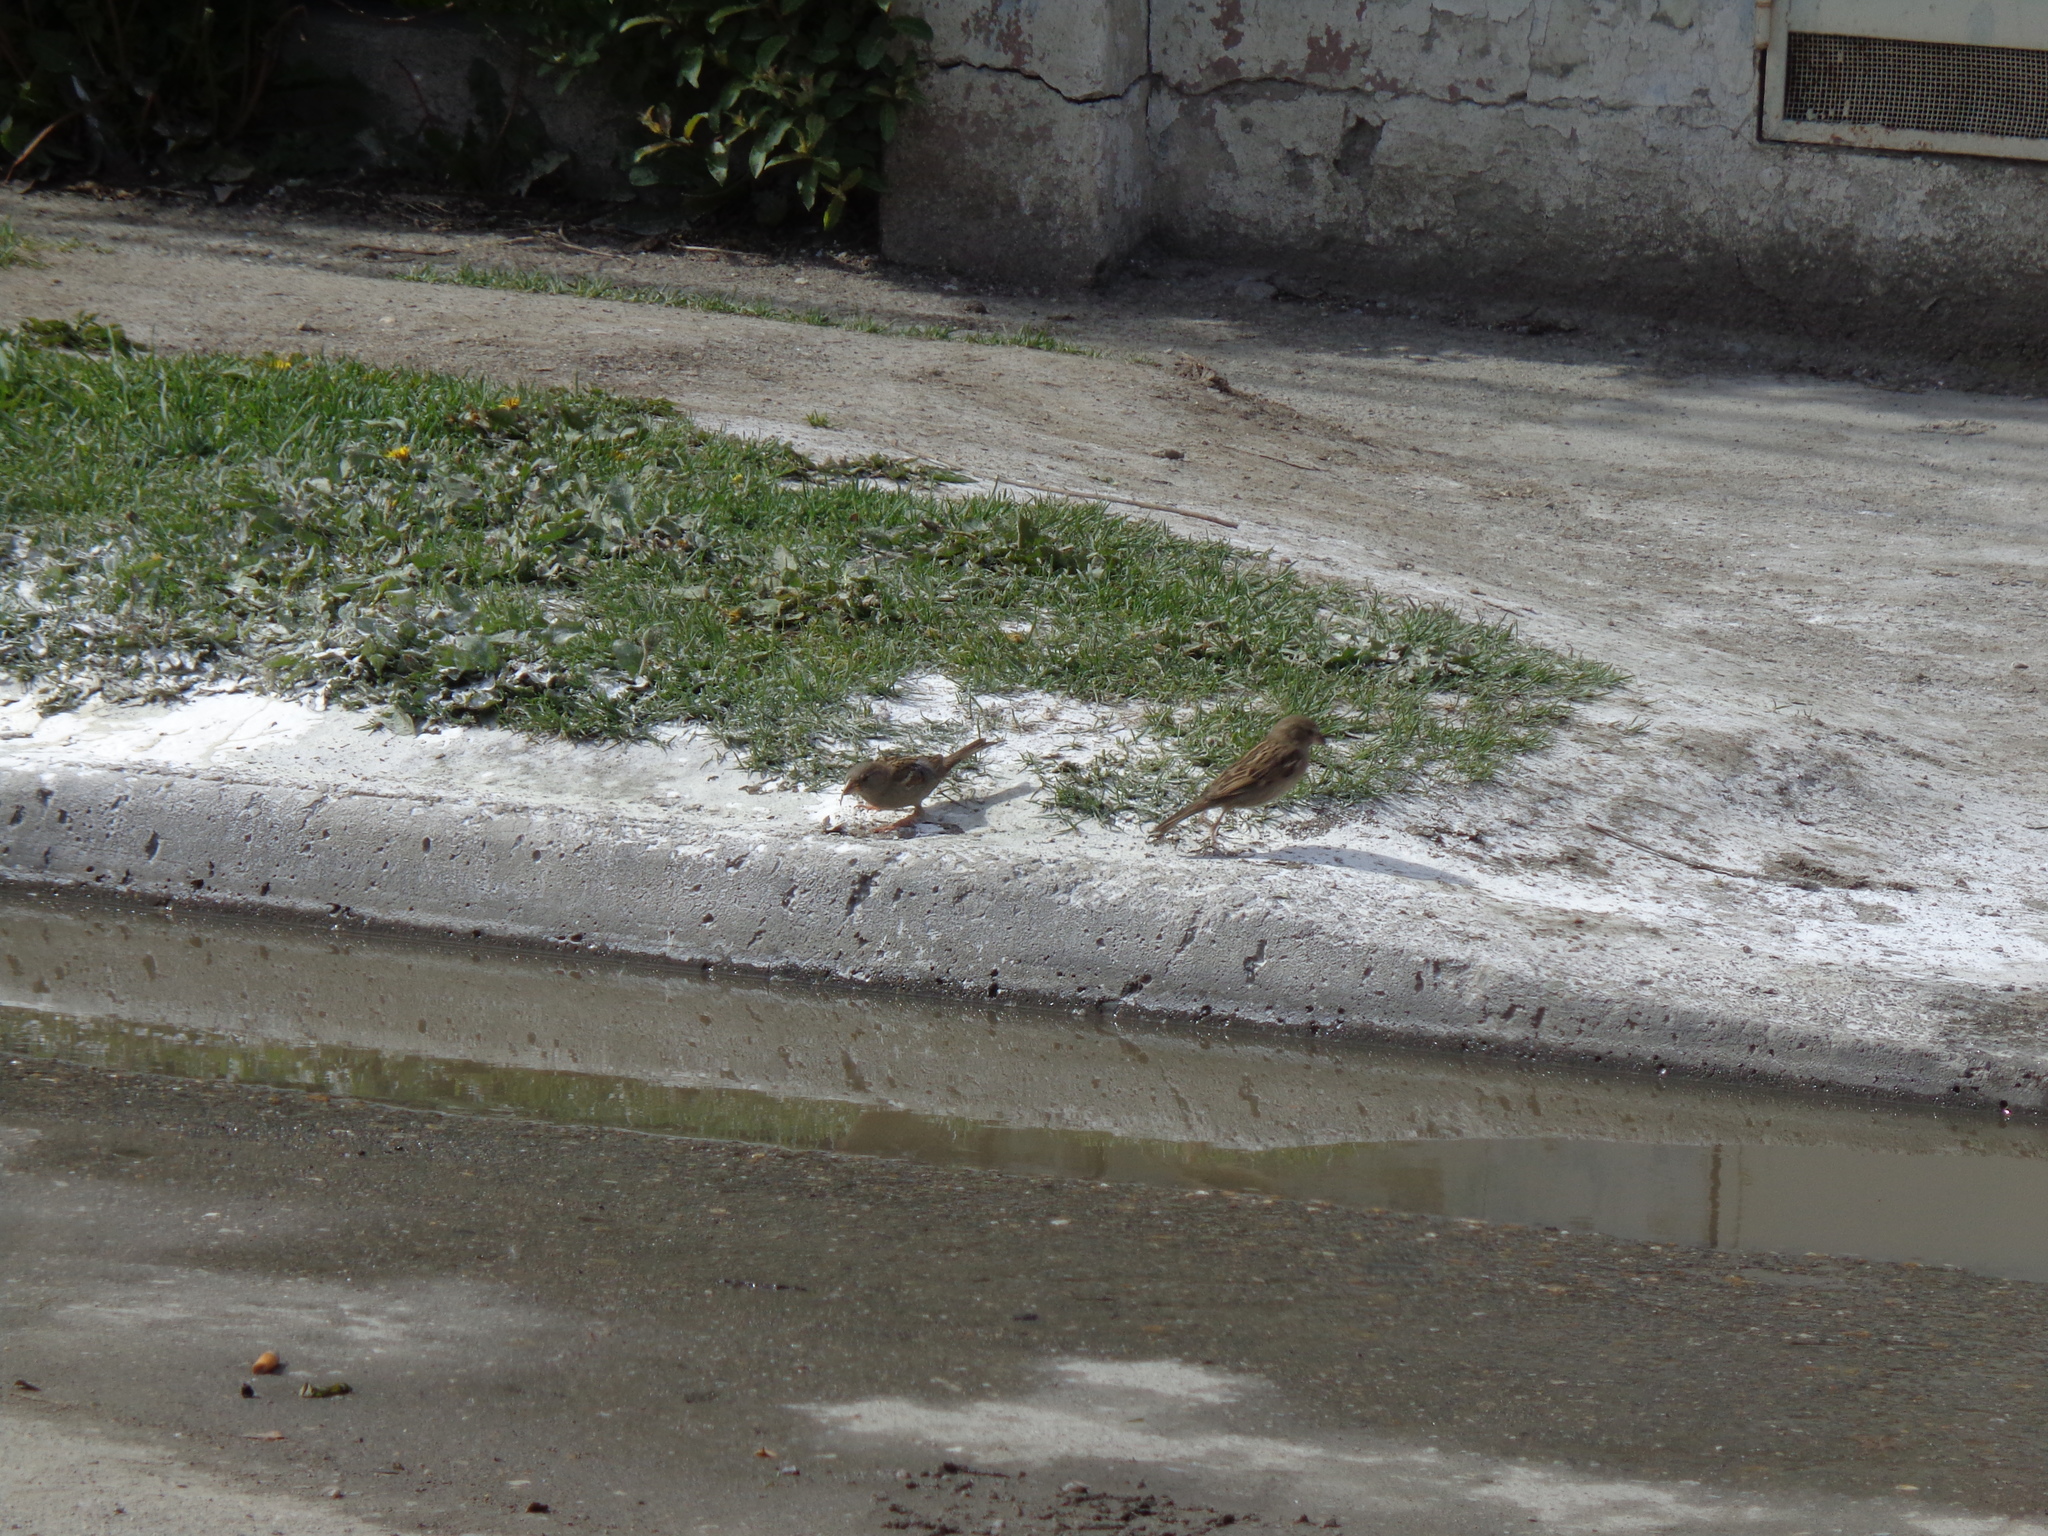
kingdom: Animalia
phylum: Chordata
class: Aves
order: Passeriformes
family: Passeridae
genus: Passer
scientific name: Passer domesticus
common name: House sparrow
